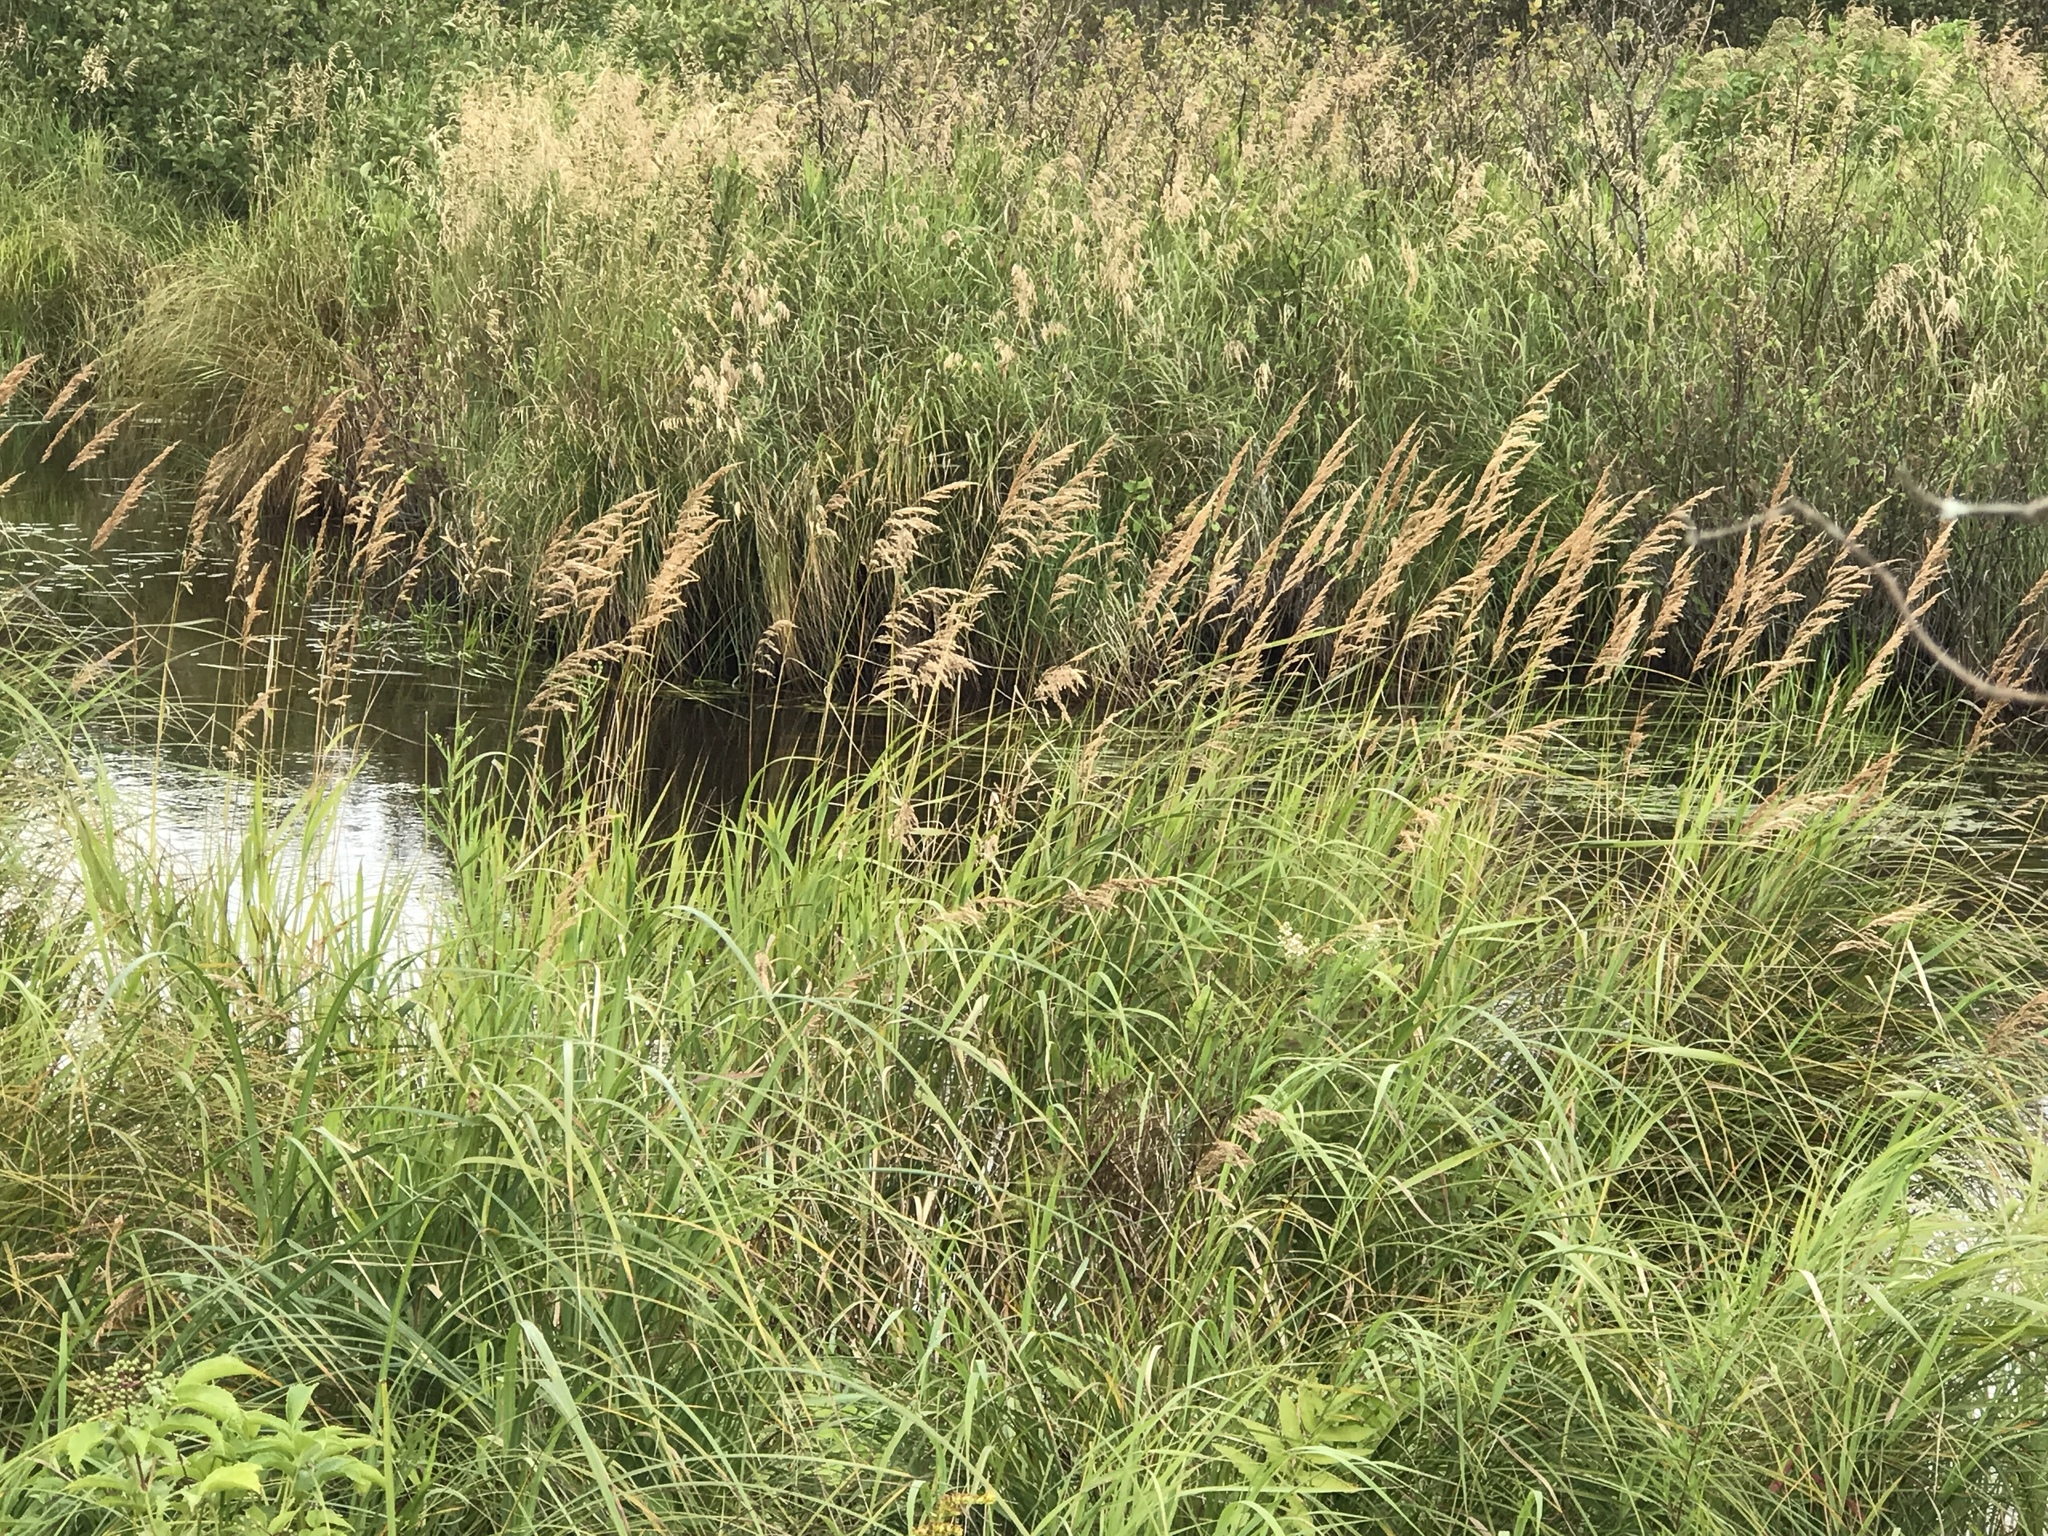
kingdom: Plantae
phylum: Tracheophyta
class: Liliopsida
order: Poales
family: Poaceae
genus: Calamagrostis
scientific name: Calamagrostis canadensis
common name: Canada bluejoint
